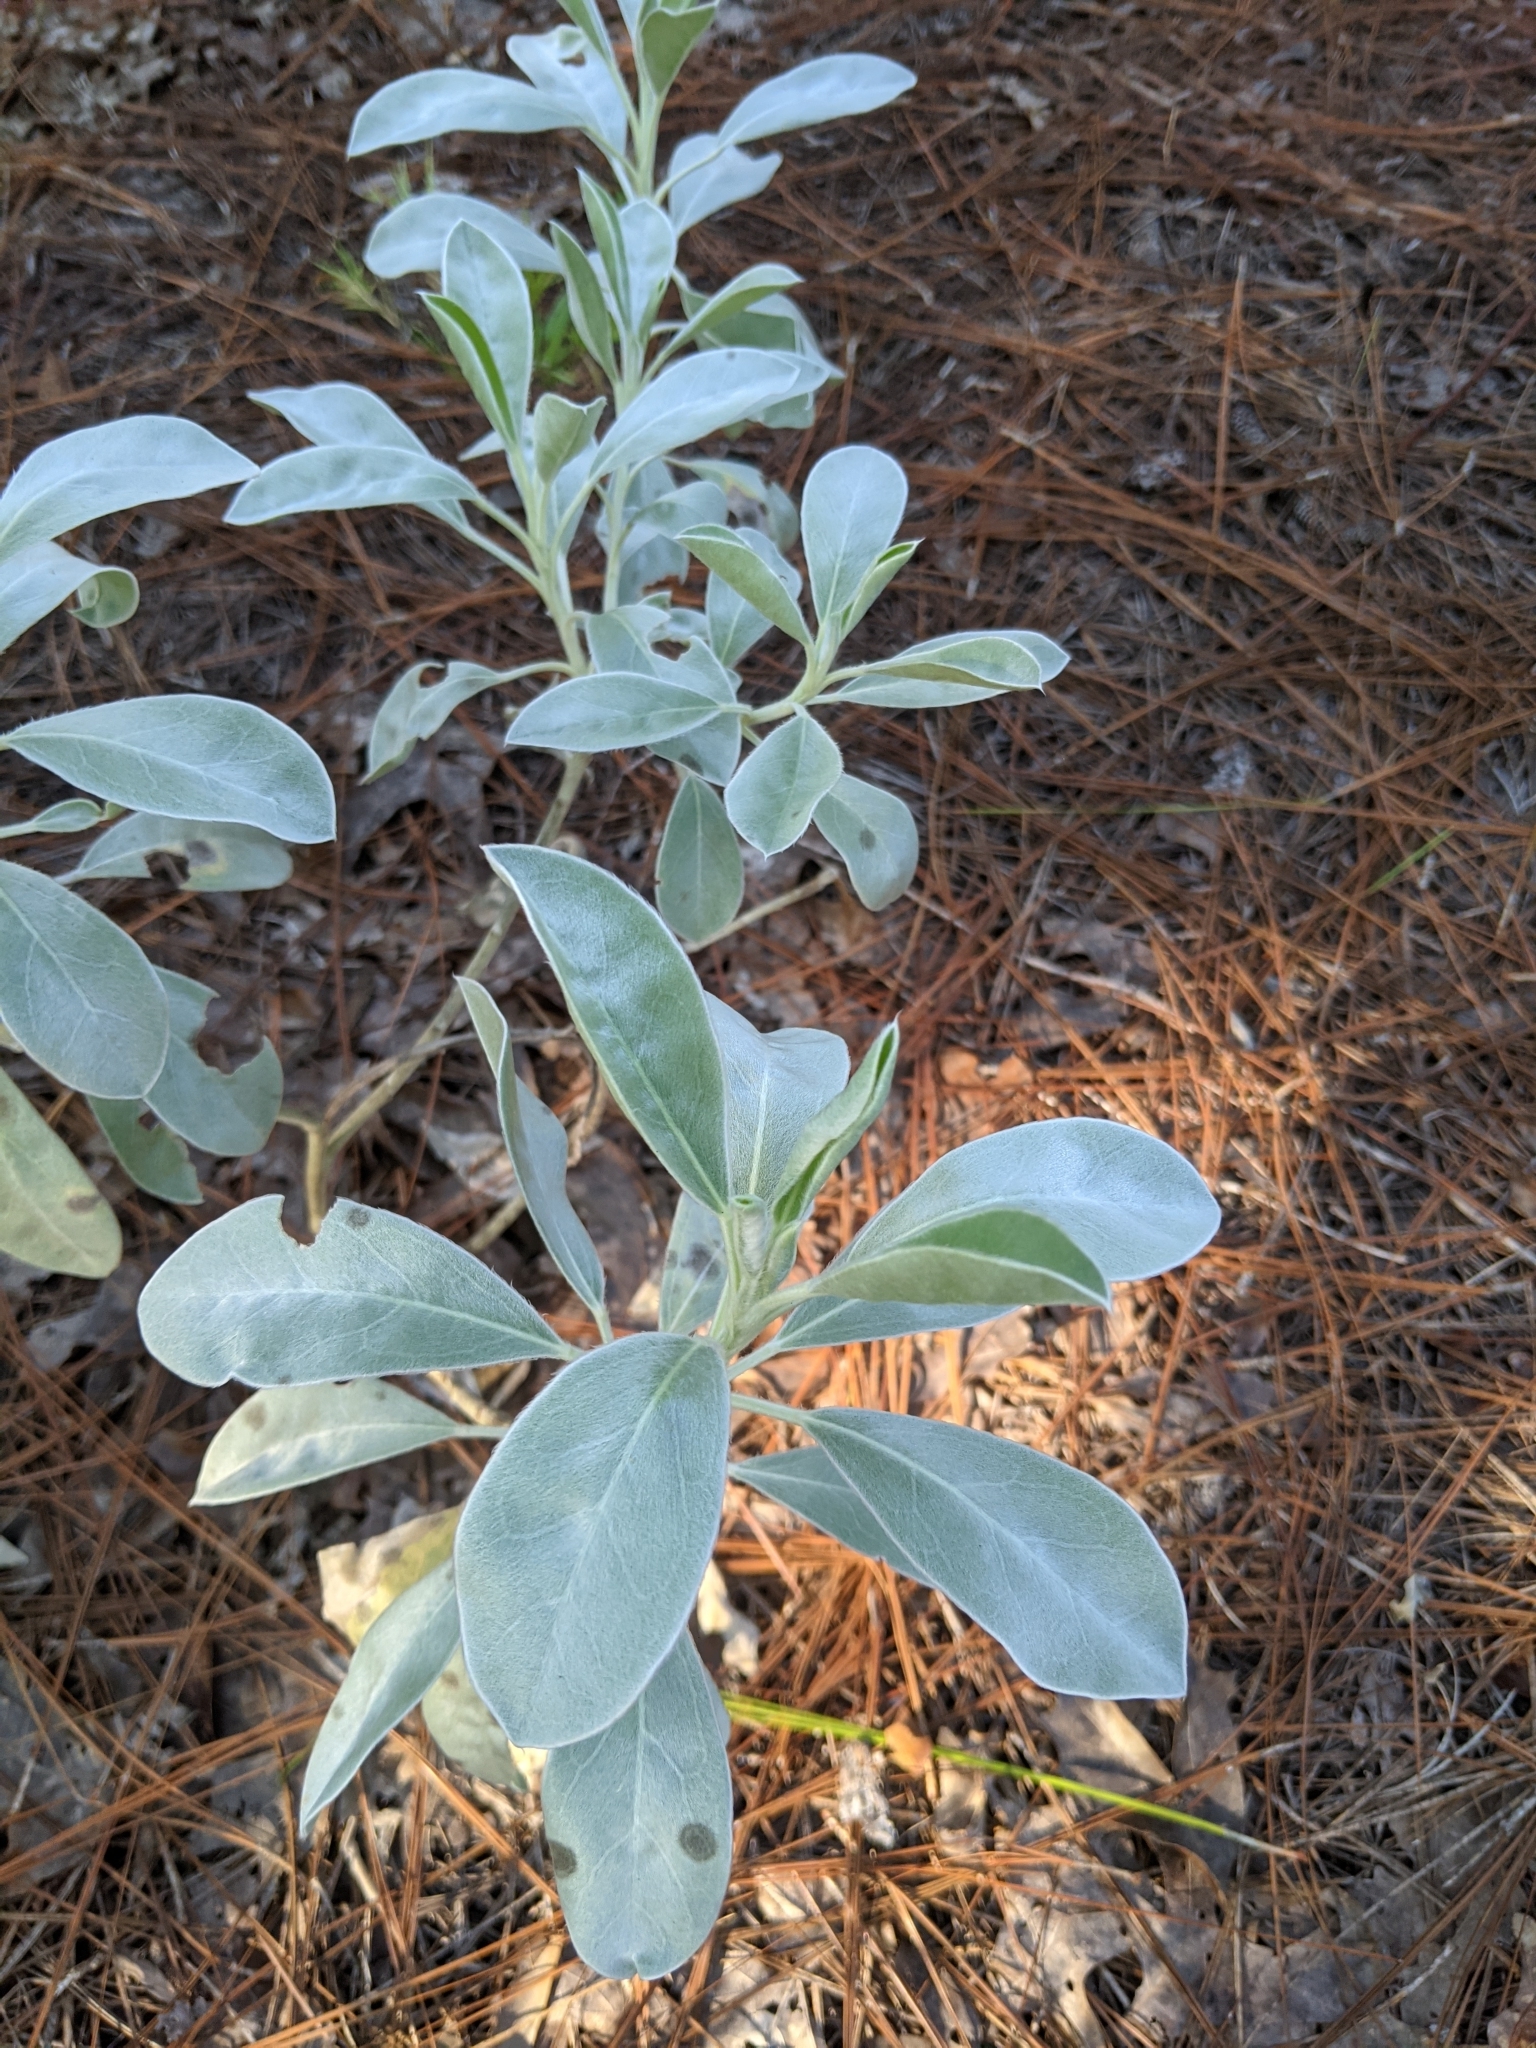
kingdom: Plantae
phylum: Tracheophyta
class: Magnoliopsida
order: Fabales
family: Fabaceae
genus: Lupinus
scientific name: Lupinus westianus
